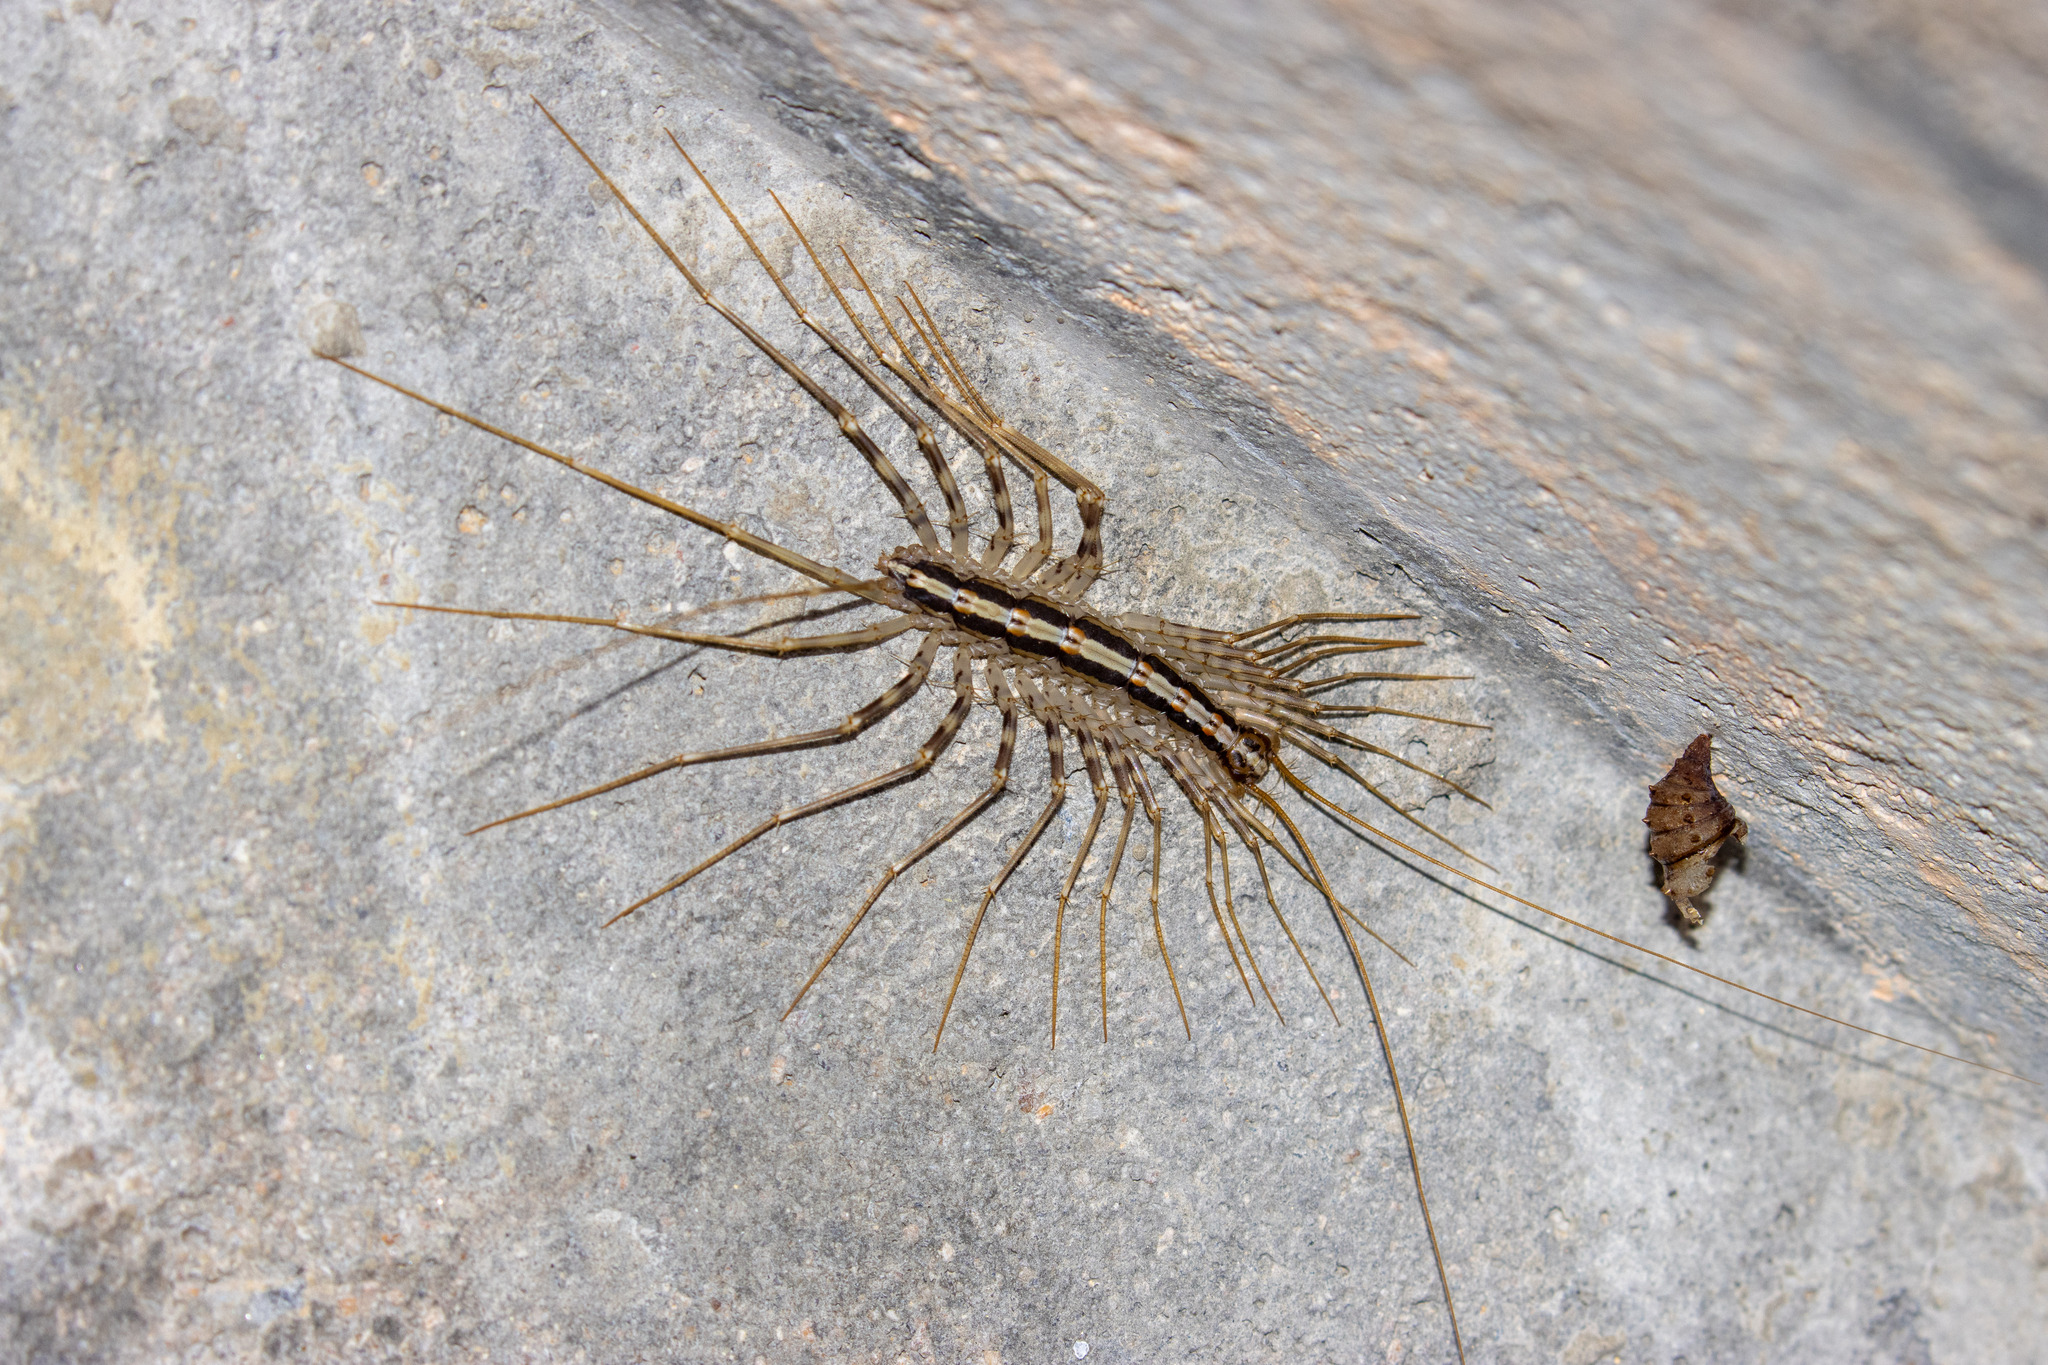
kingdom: Animalia
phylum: Arthropoda
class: Chilopoda
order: Scutigeromorpha
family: Pselliodidae
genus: Sphendononema
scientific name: Sphendononema guildingii
